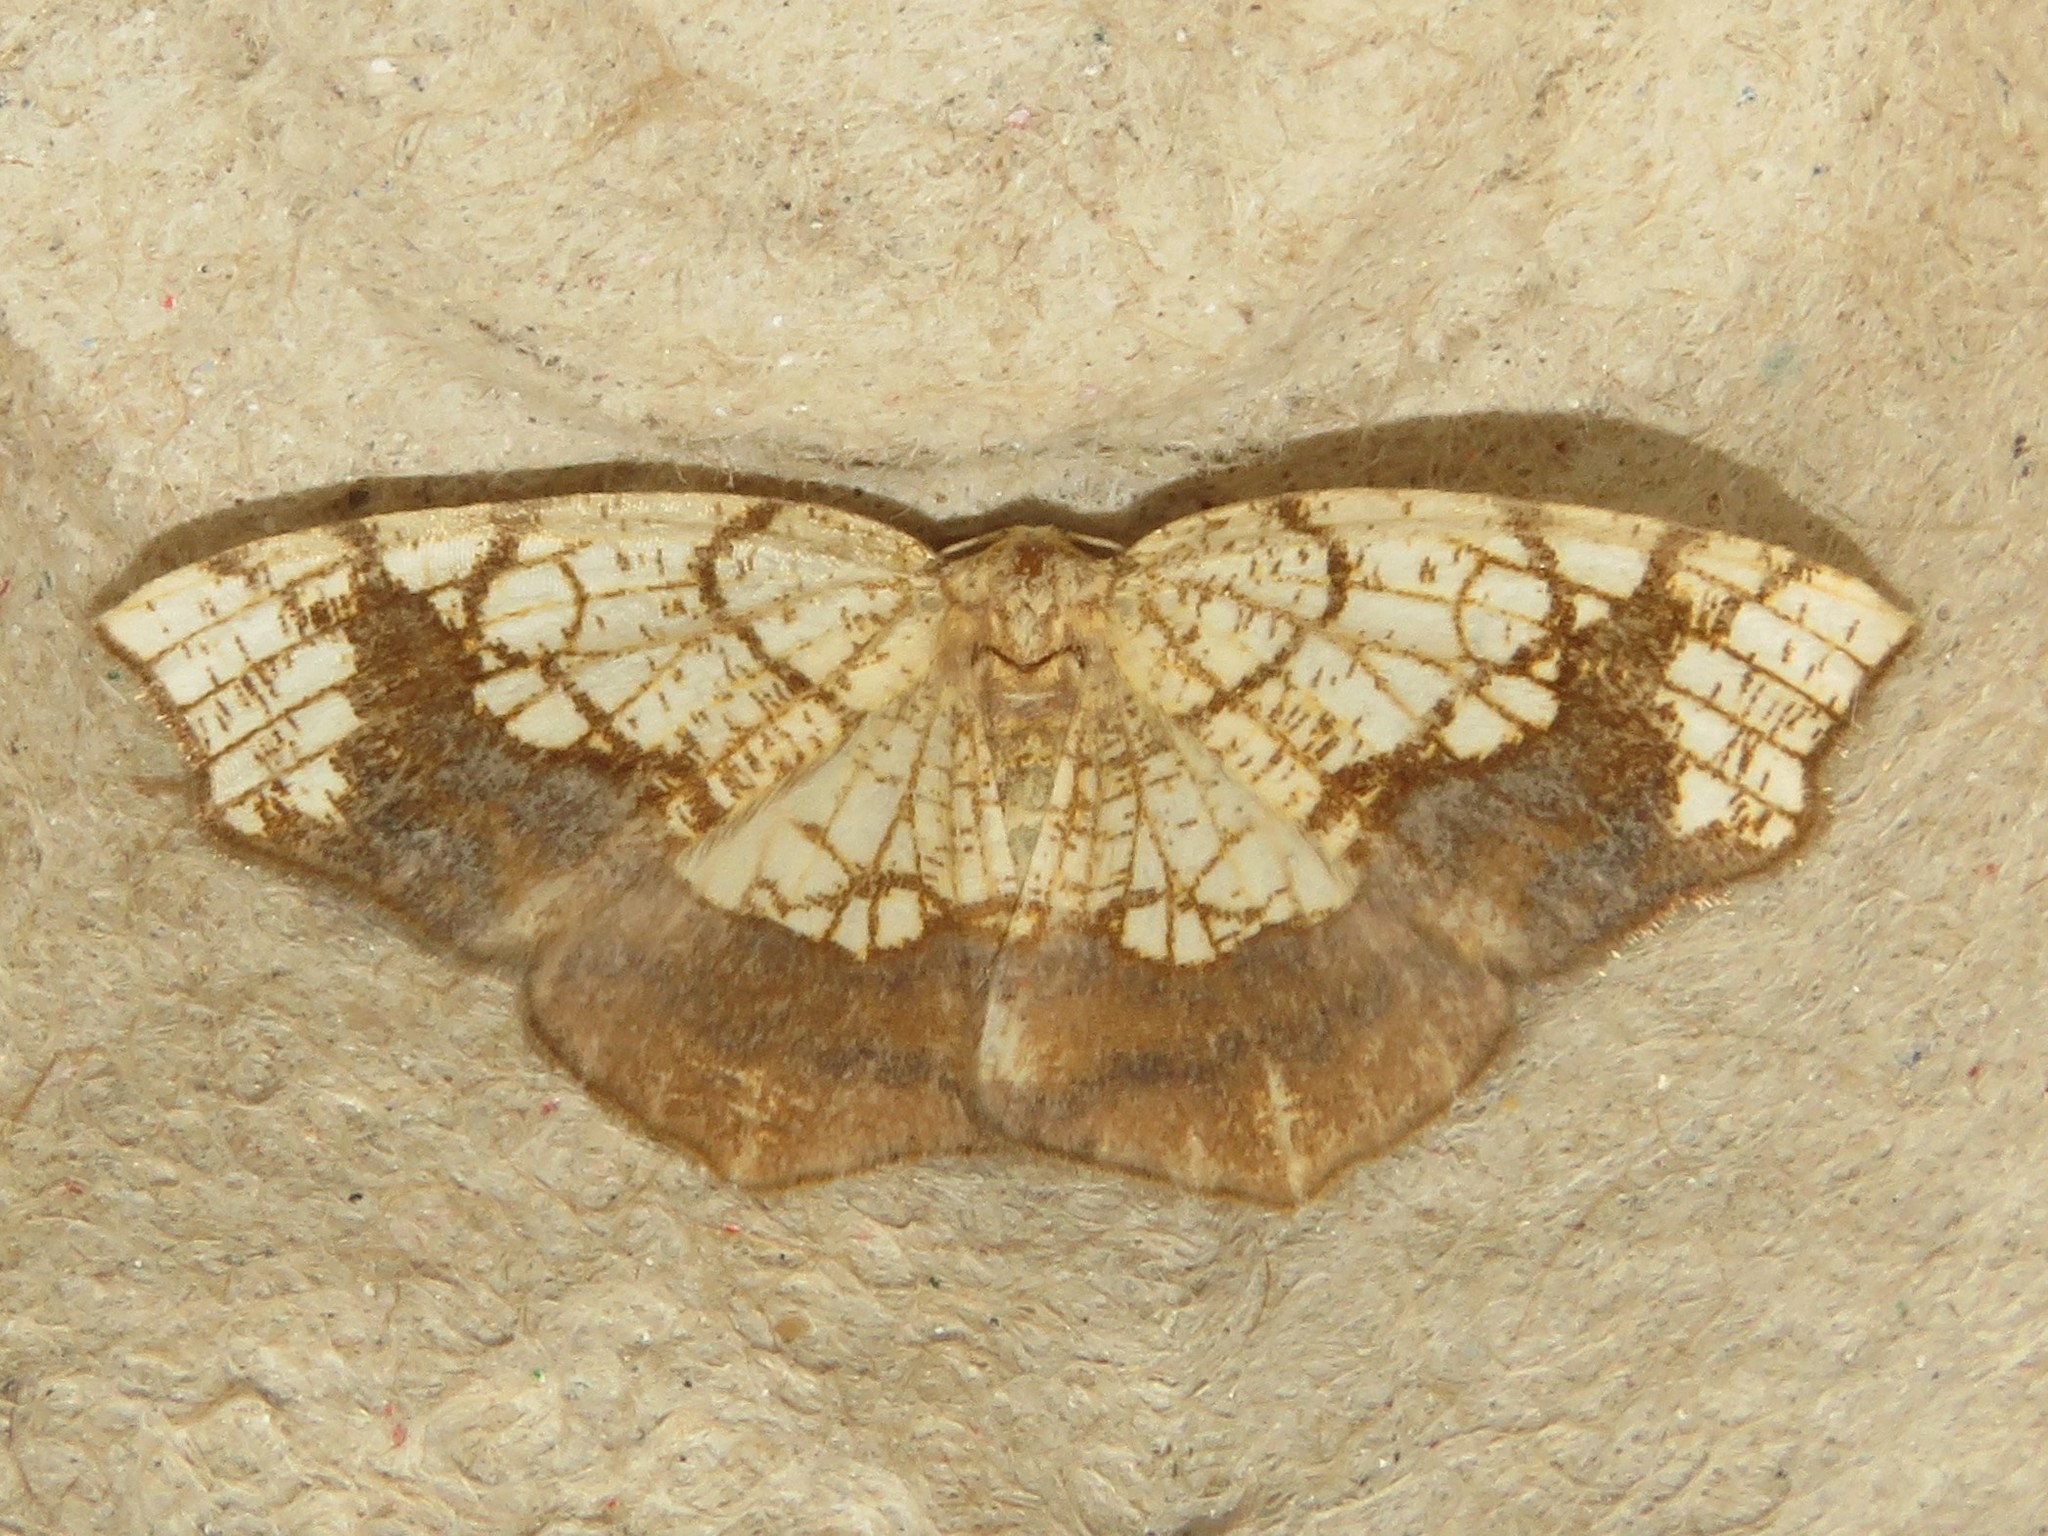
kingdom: Animalia
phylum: Arthropoda
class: Insecta
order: Lepidoptera
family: Geometridae
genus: Nematocampa
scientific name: Nematocampa resistaria
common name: Horned spanworm moth
